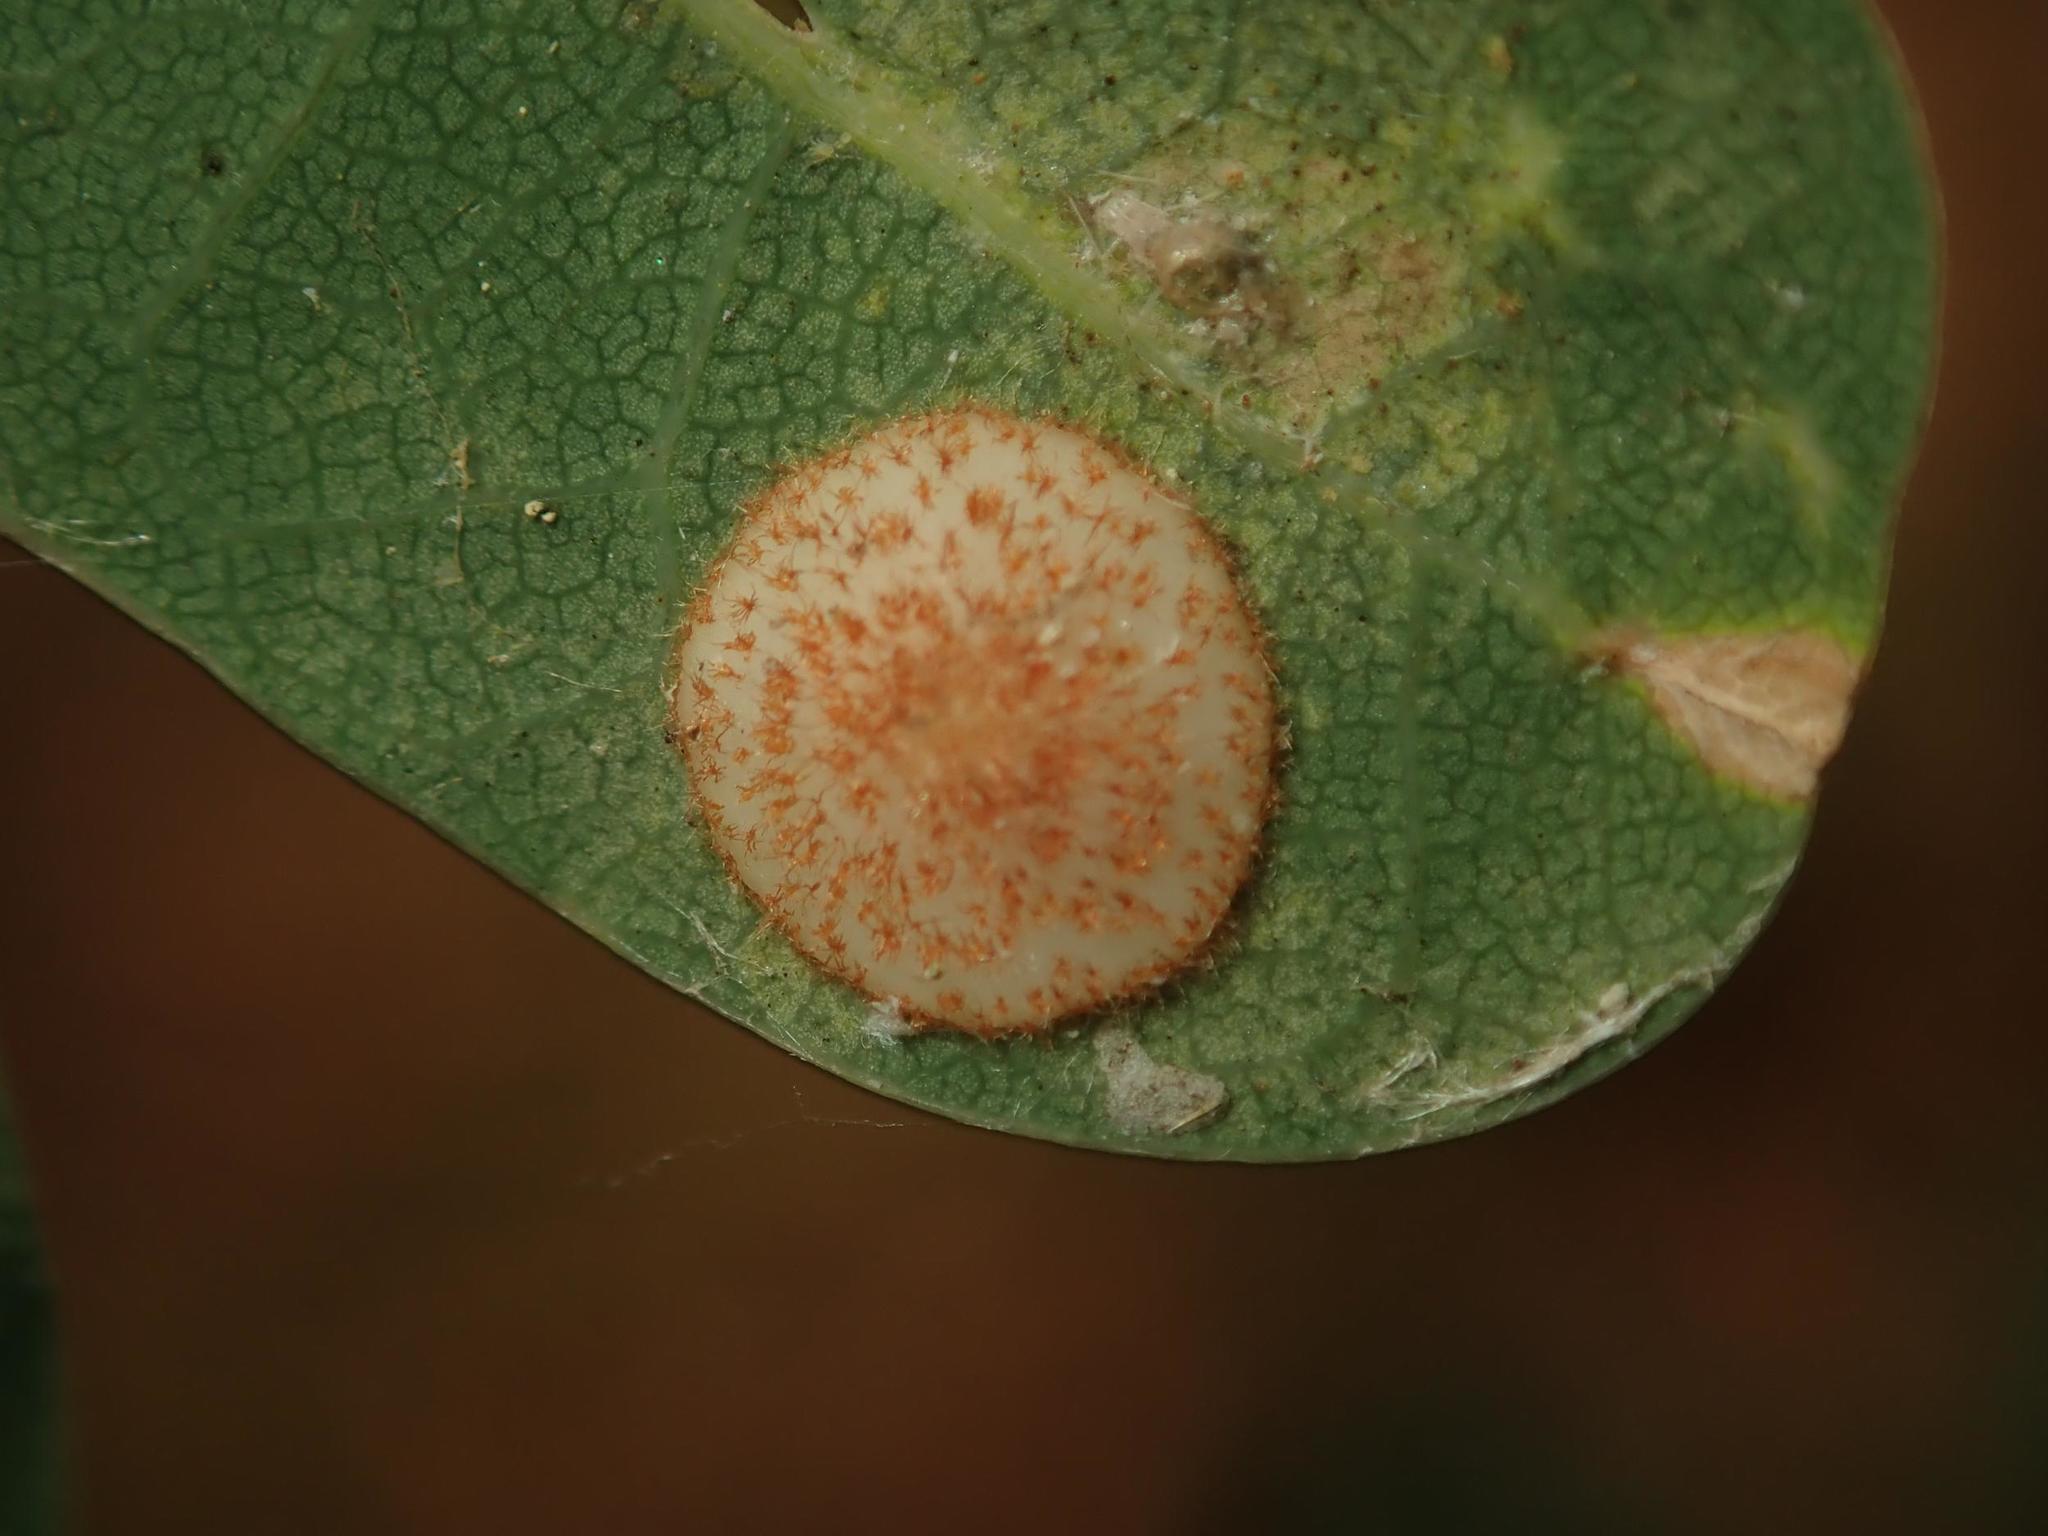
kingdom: Animalia
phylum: Arthropoda
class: Insecta
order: Hymenoptera
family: Cynipidae
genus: Neuroterus
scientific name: Neuroterus quercusbaccarum
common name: Common spangle gall
